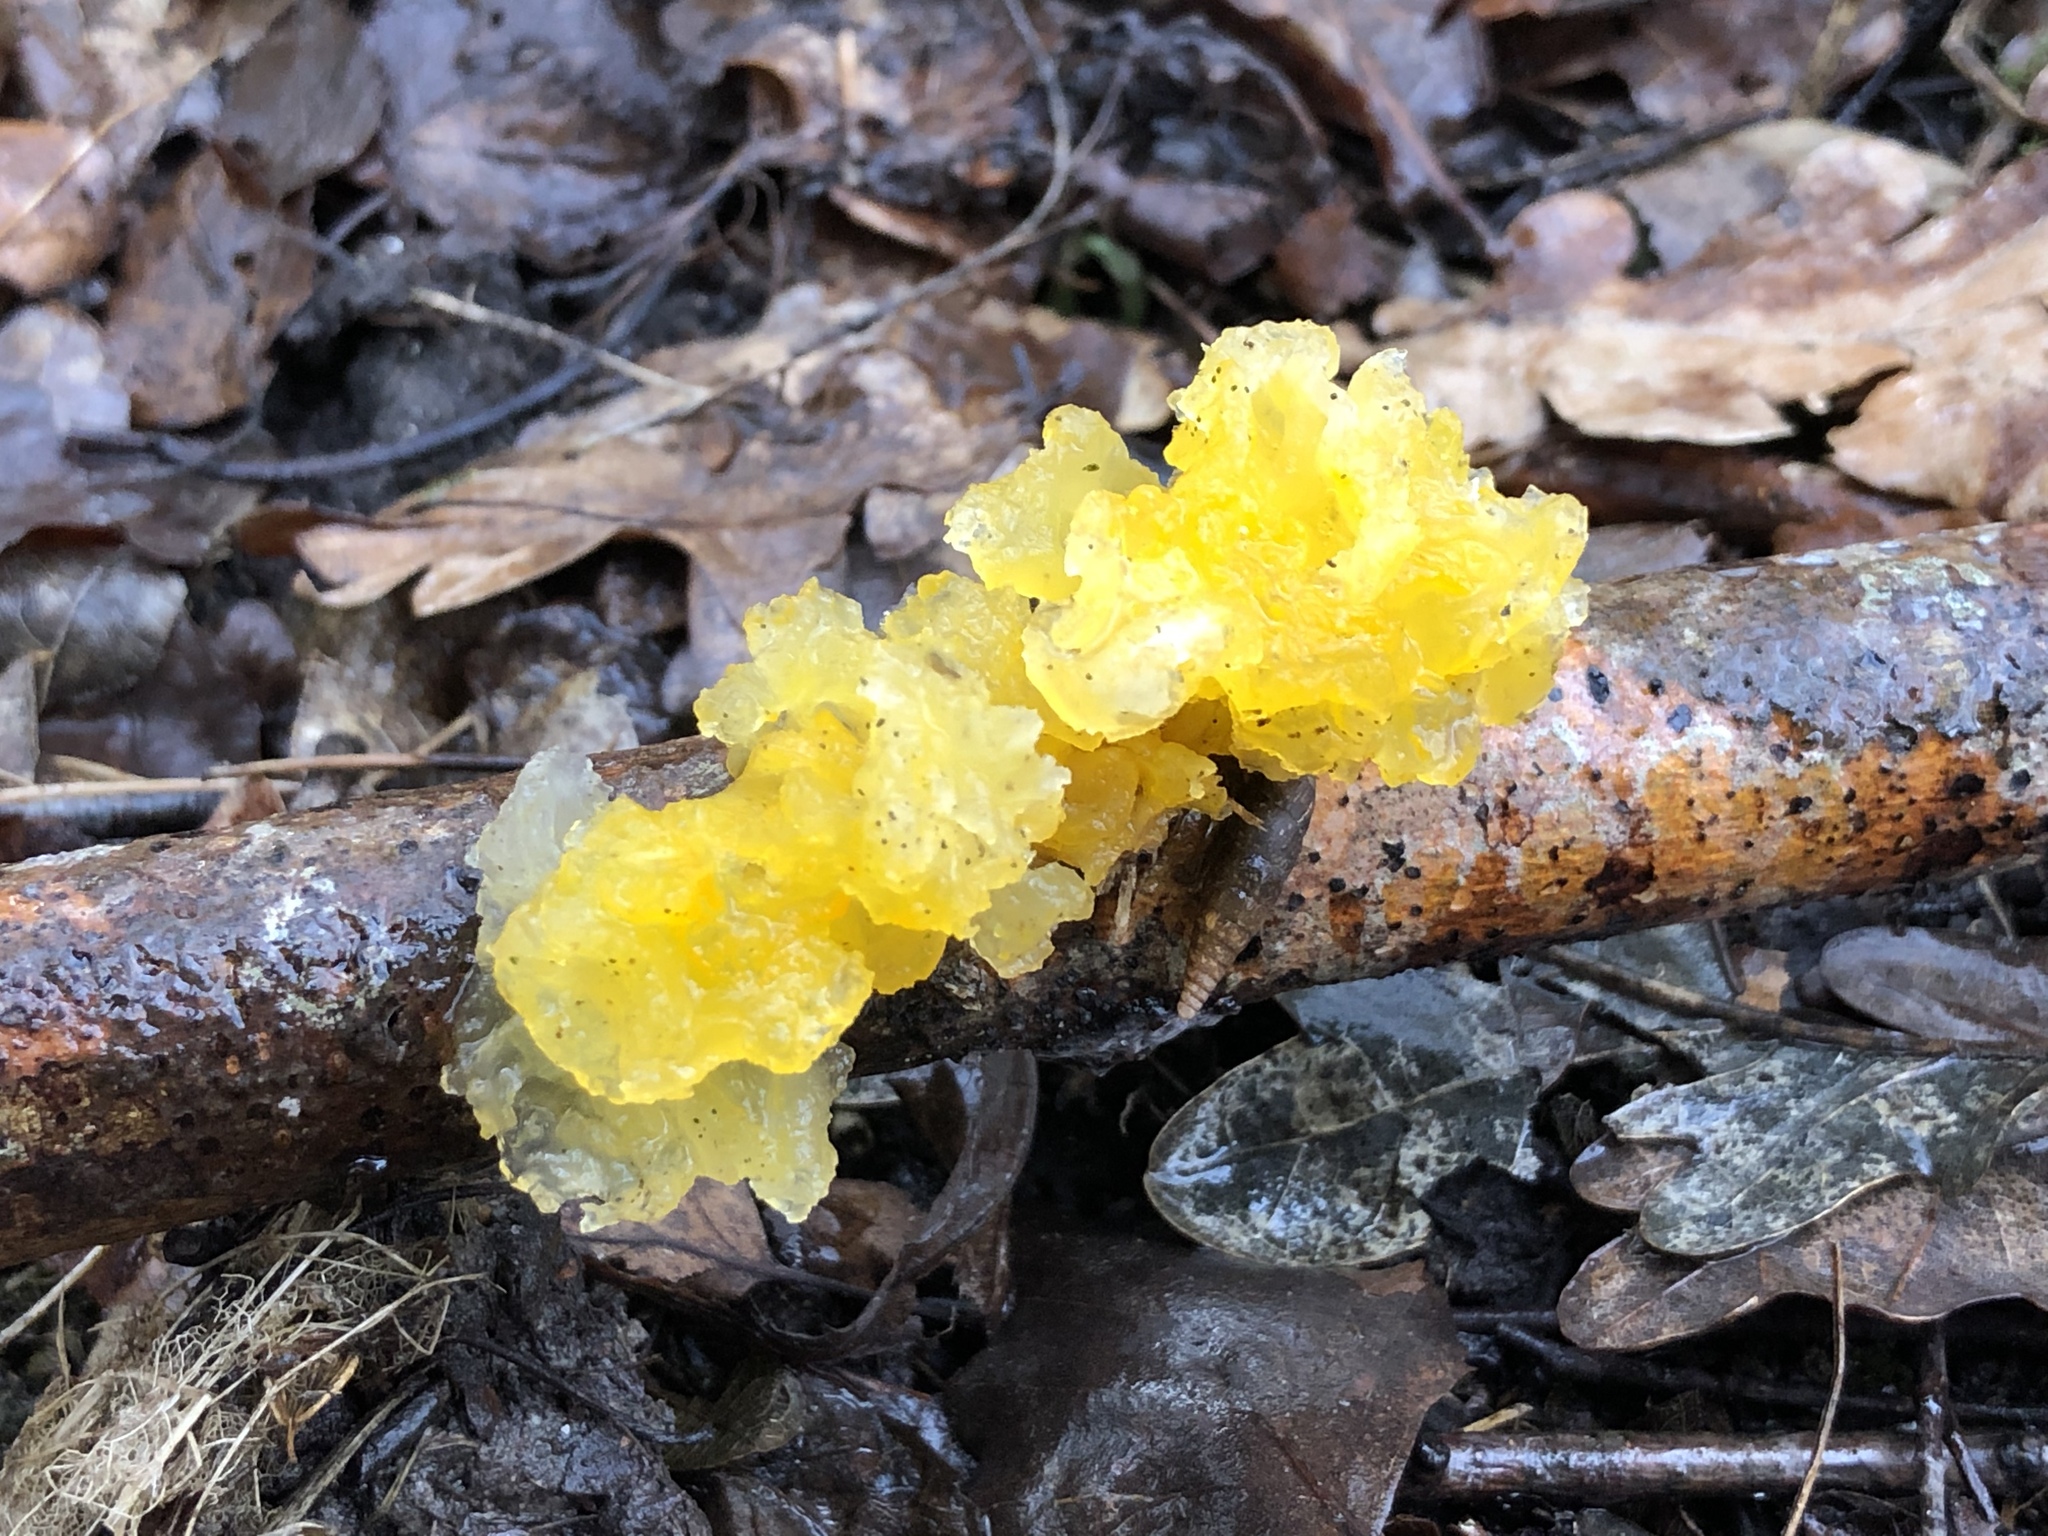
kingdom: Fungi
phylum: Basidiomycota
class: Tremellomycetes
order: Tremellales
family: Tremellaceae
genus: Tremella
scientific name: Tremella mesenterica
